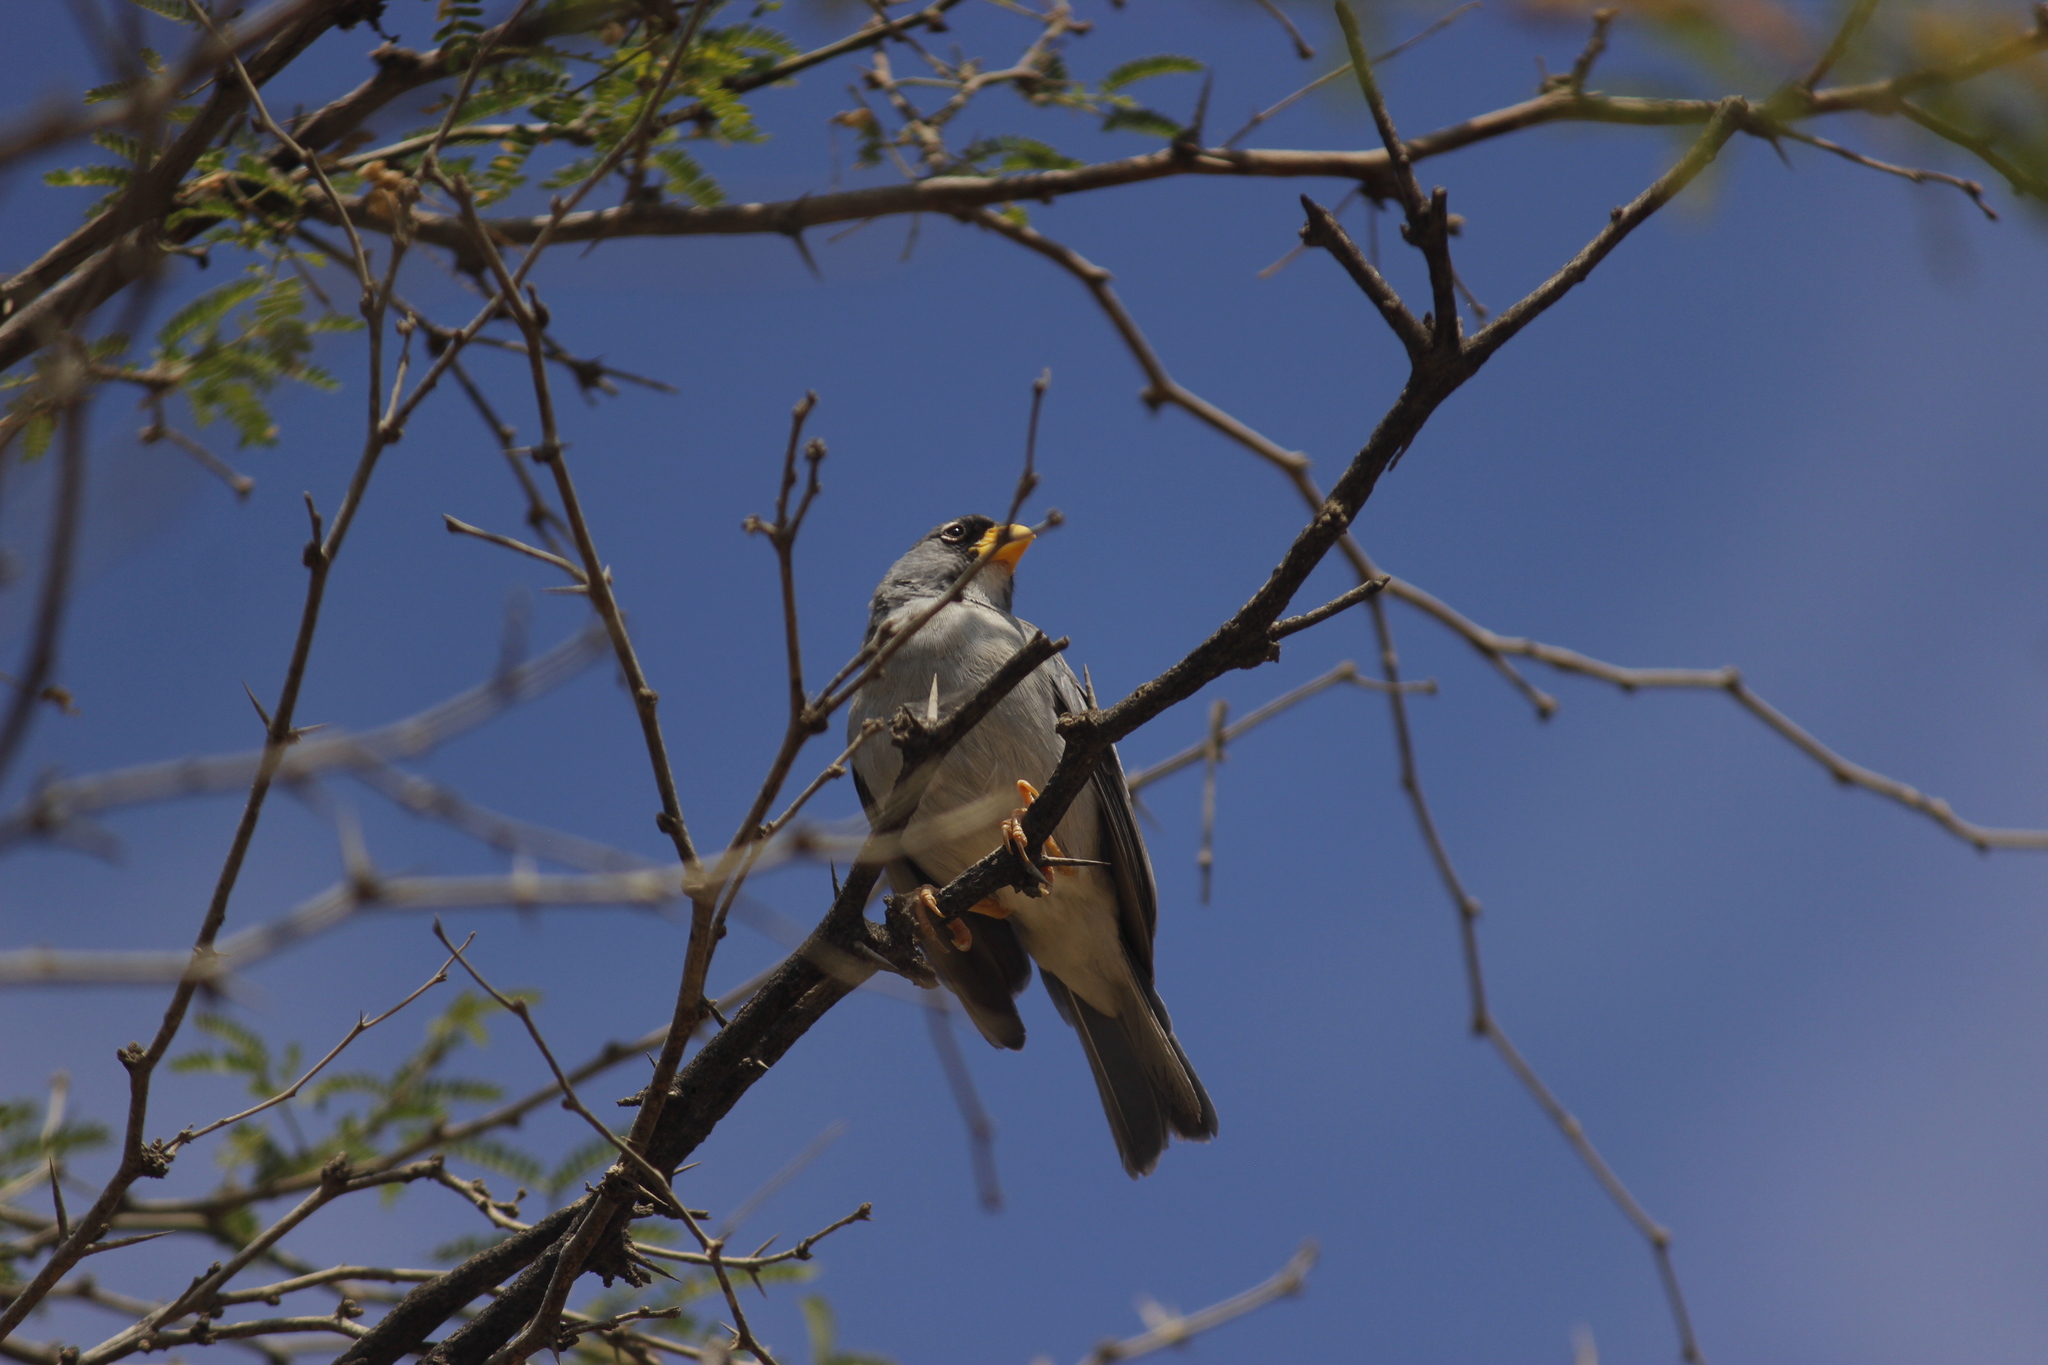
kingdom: Animalia
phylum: Chordata
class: Aves
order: Passeriformes
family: Thraupidae
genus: Piezorina
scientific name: Piezorina cinerea
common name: Cinereous finch
